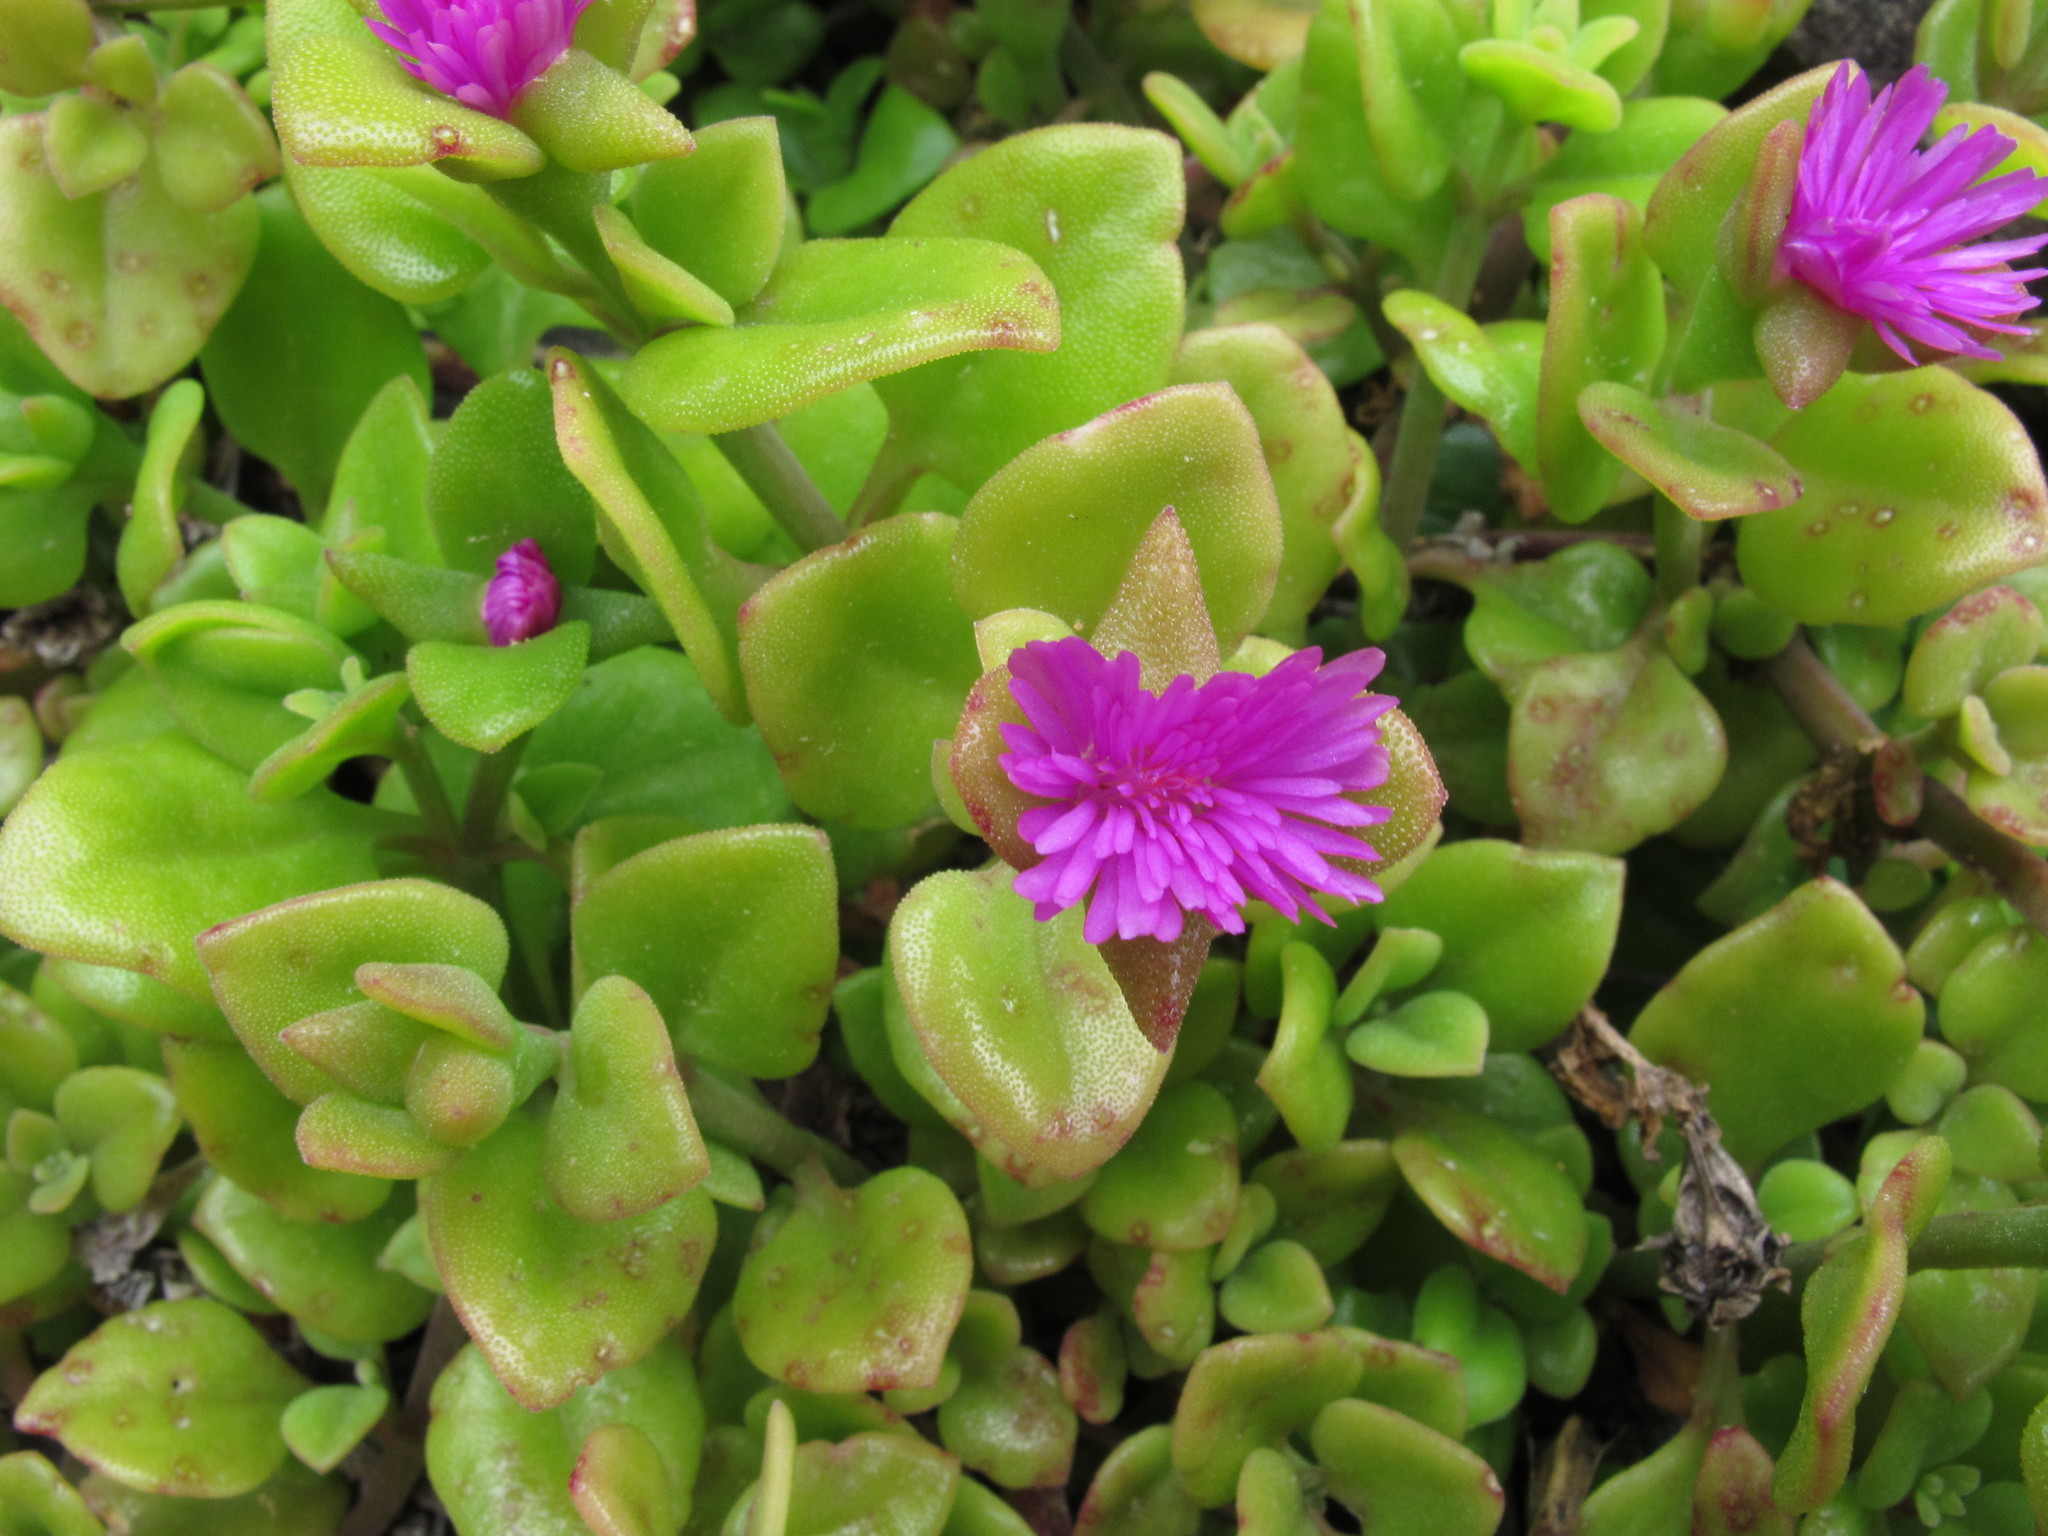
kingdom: Plantae
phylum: Tracheophyta
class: Magnoliopsida
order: Caryophyllales
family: Aizoaceae
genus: Mesembryanthemum
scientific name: Mesembryanthemum cordifolium
